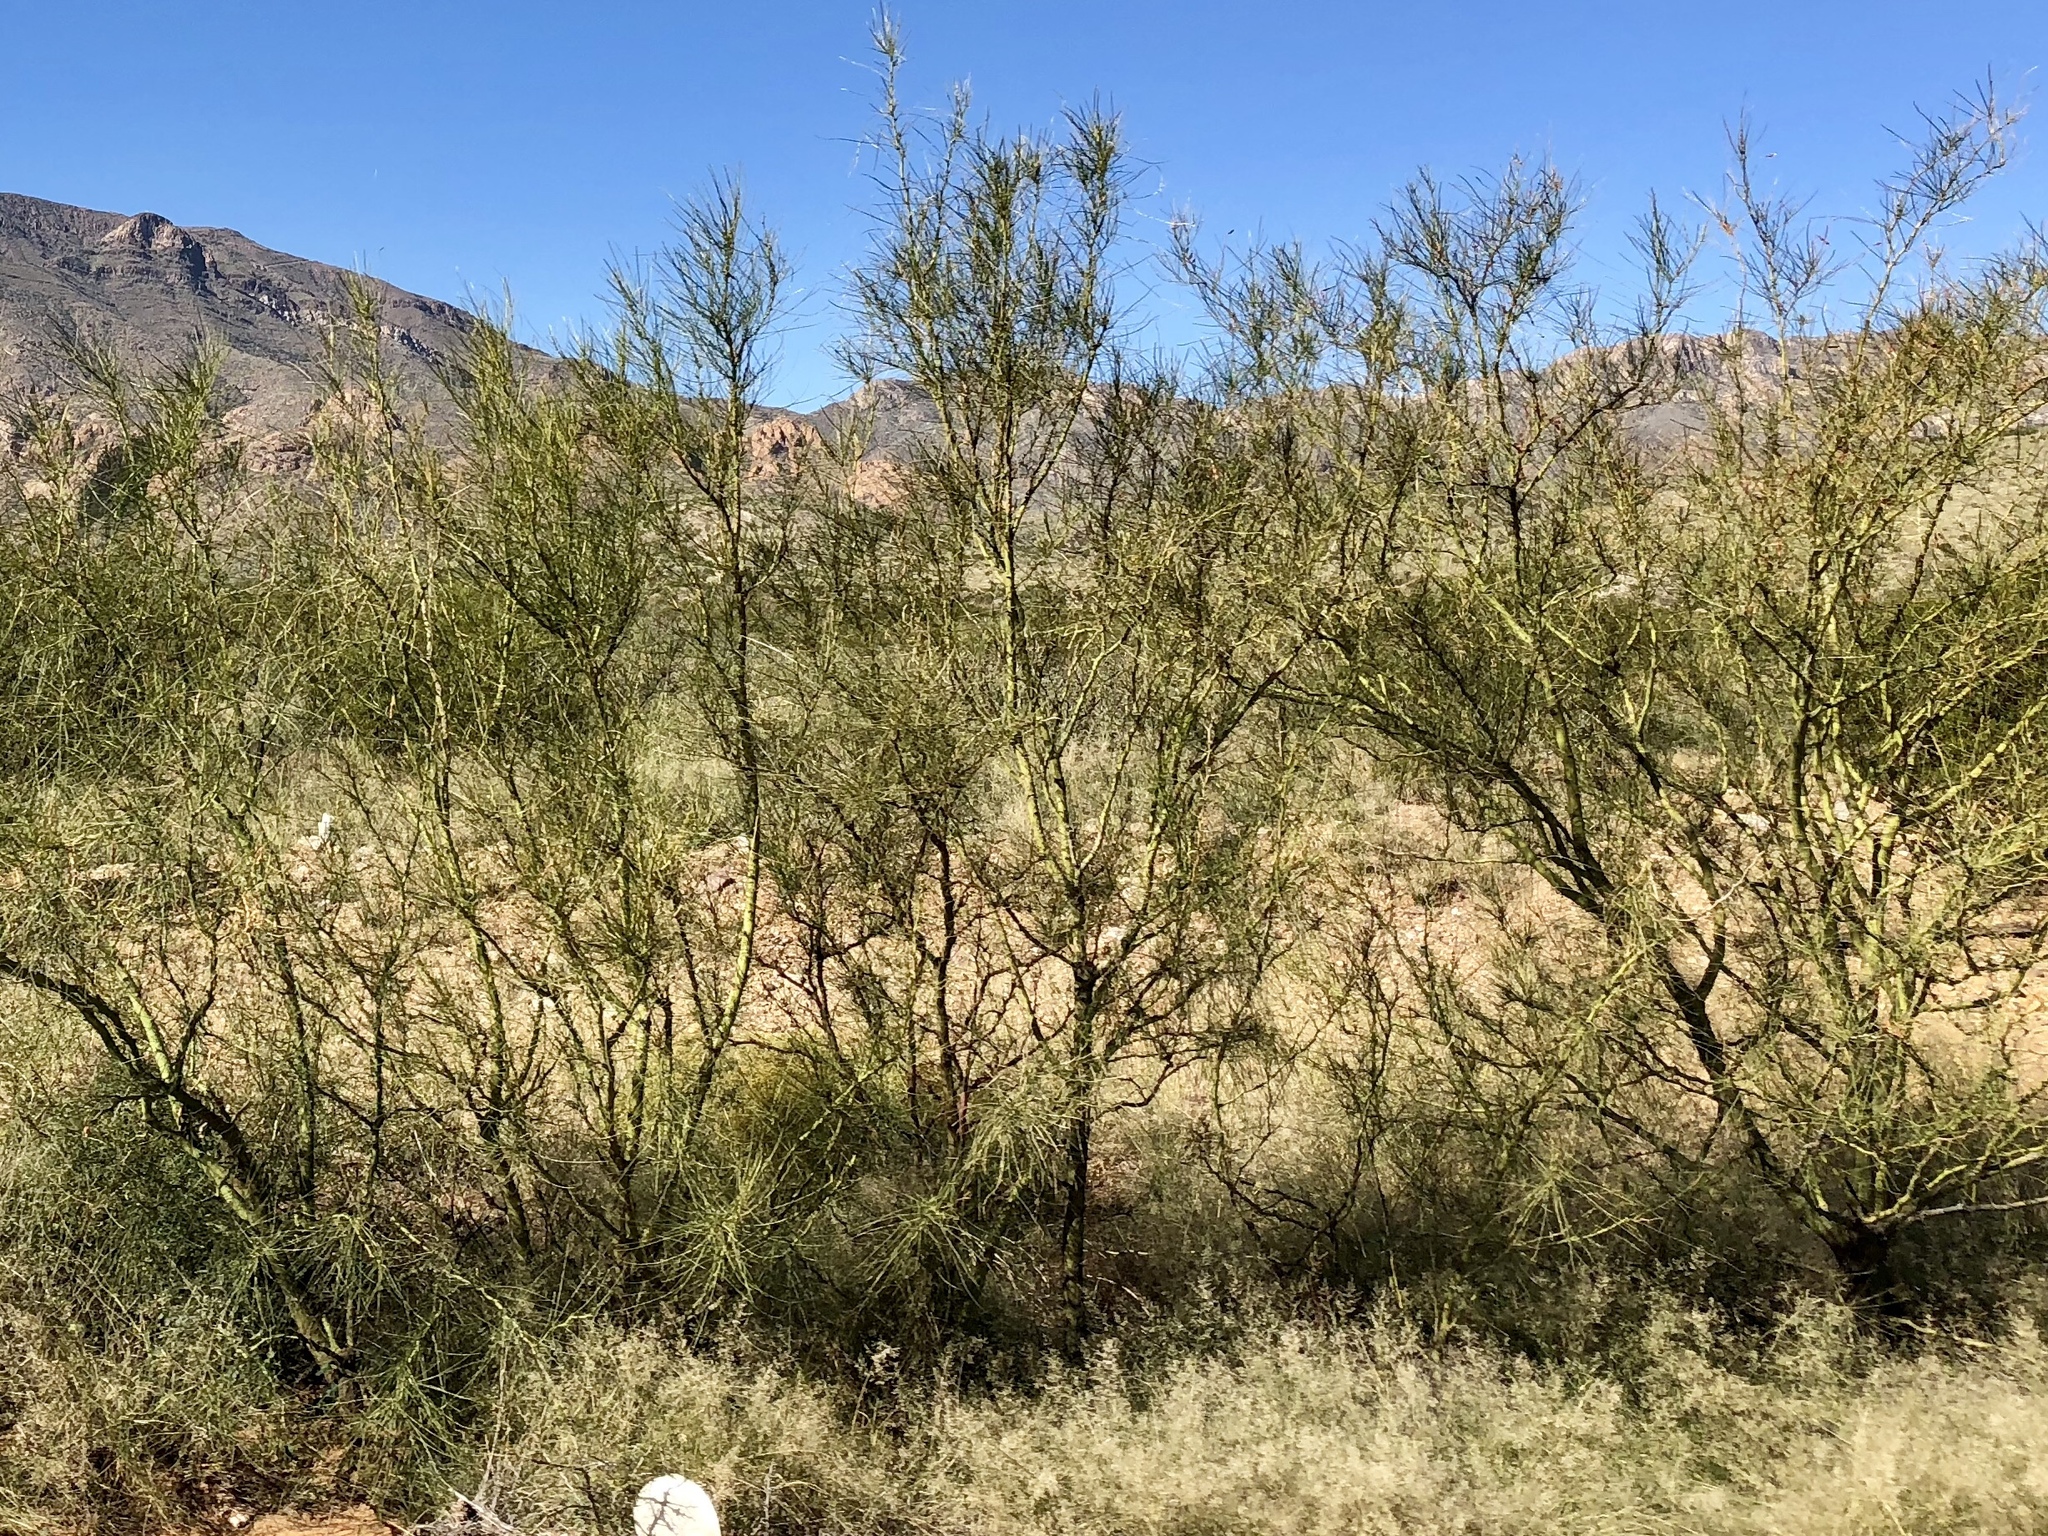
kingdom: Plantae
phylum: Tracheophyta
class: Magnoliopsida
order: Fabales
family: Fabaceae
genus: Parkinsonia
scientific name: Parkinsonia aculeata
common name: Jerusalem thorn
